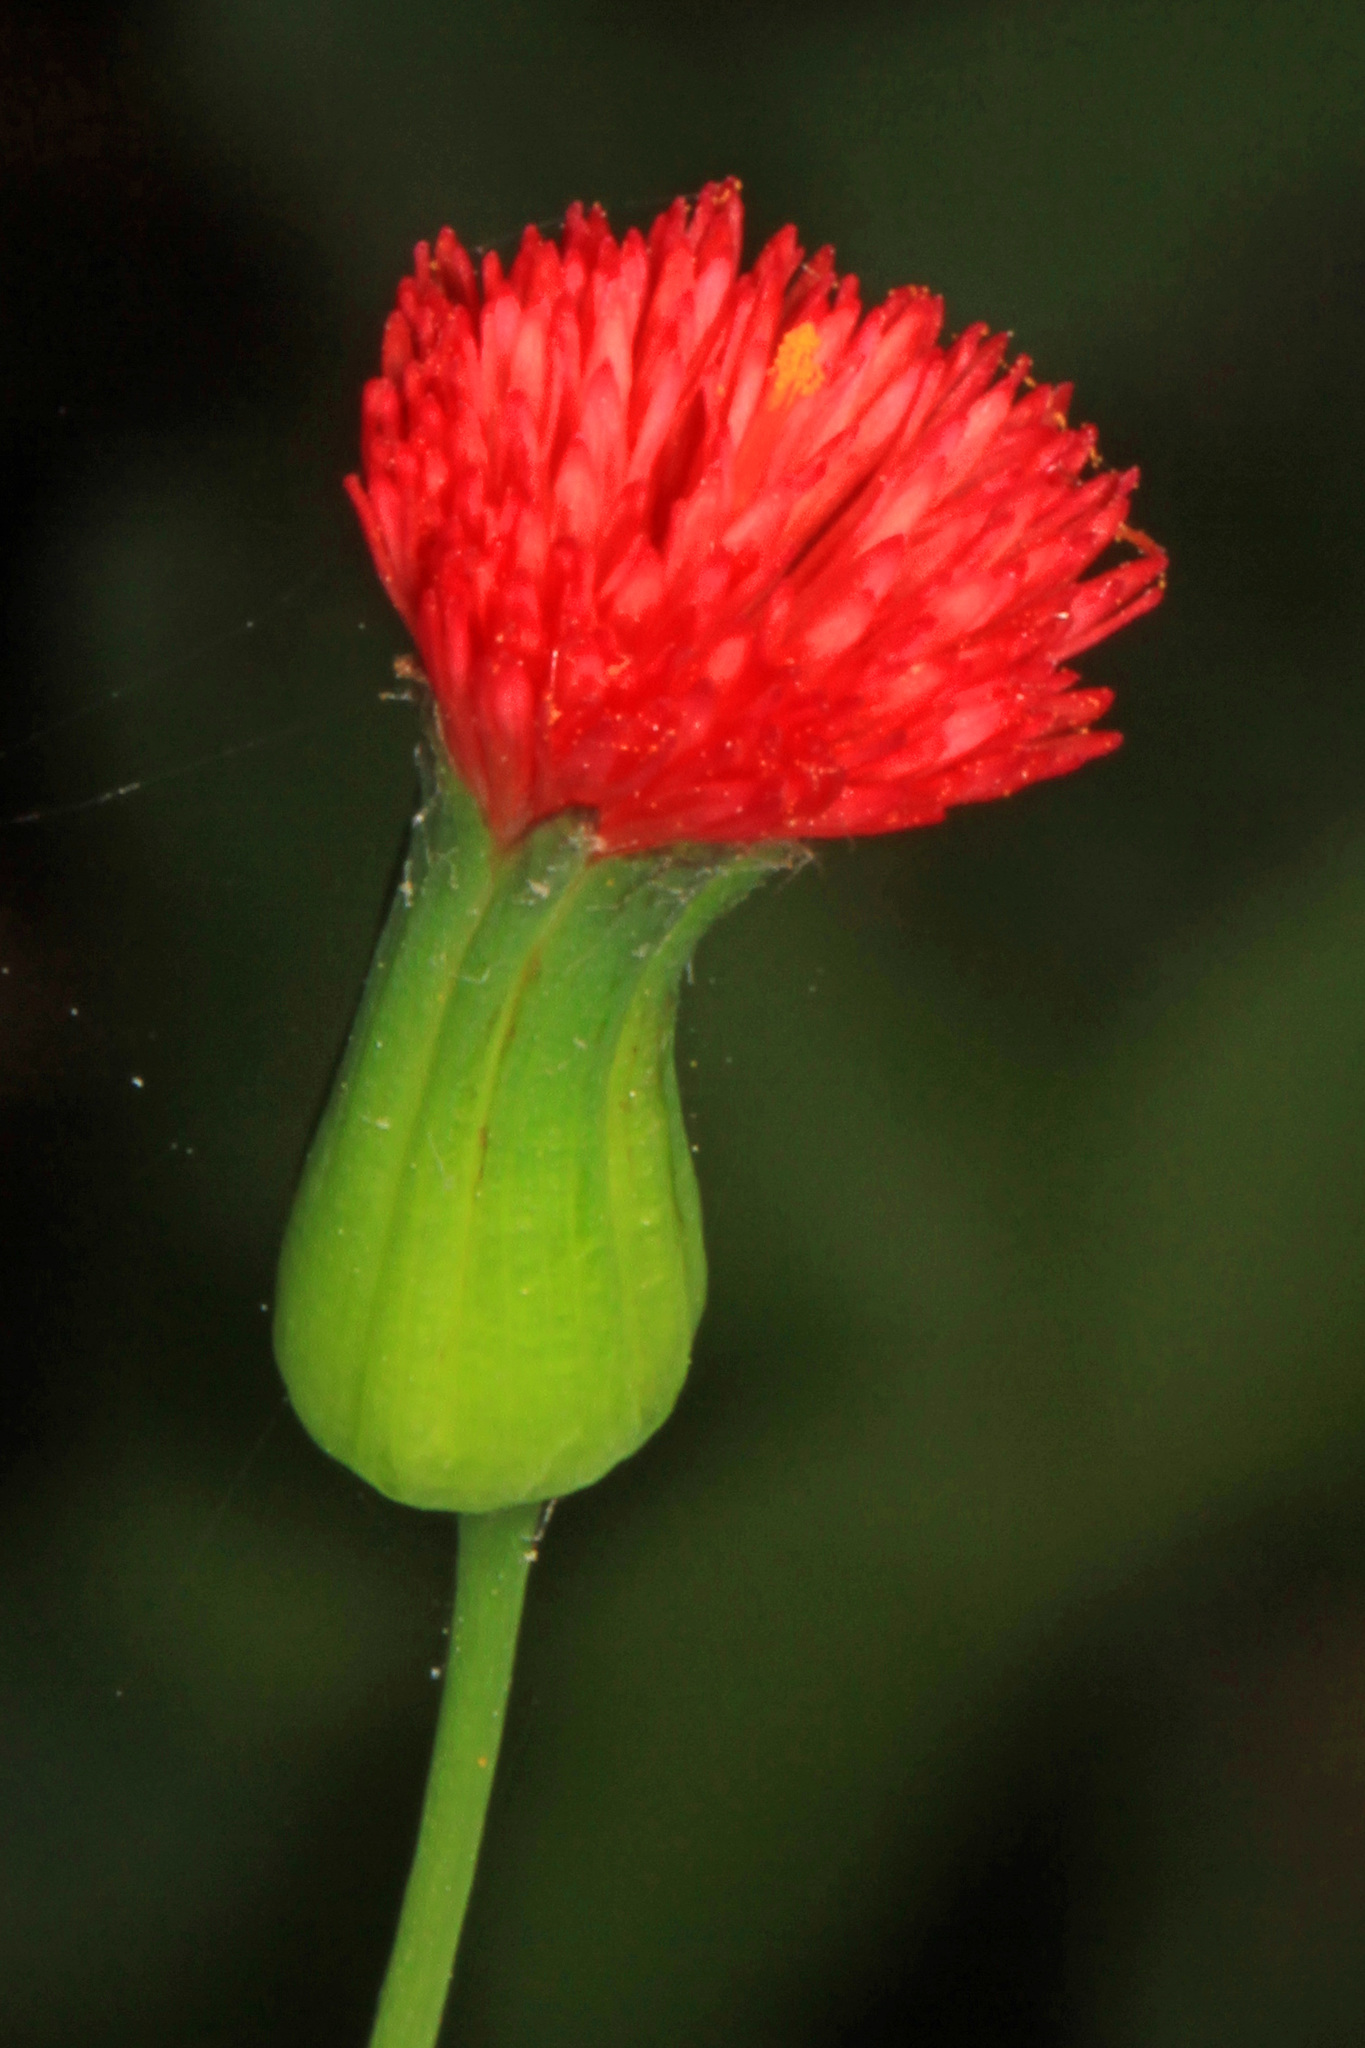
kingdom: Plantae
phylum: Tracheophyta
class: Magnoliopsida
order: Asterales
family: Asteraceae
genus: Emilia
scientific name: Emilia fosbergii
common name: Florida tasselflower
